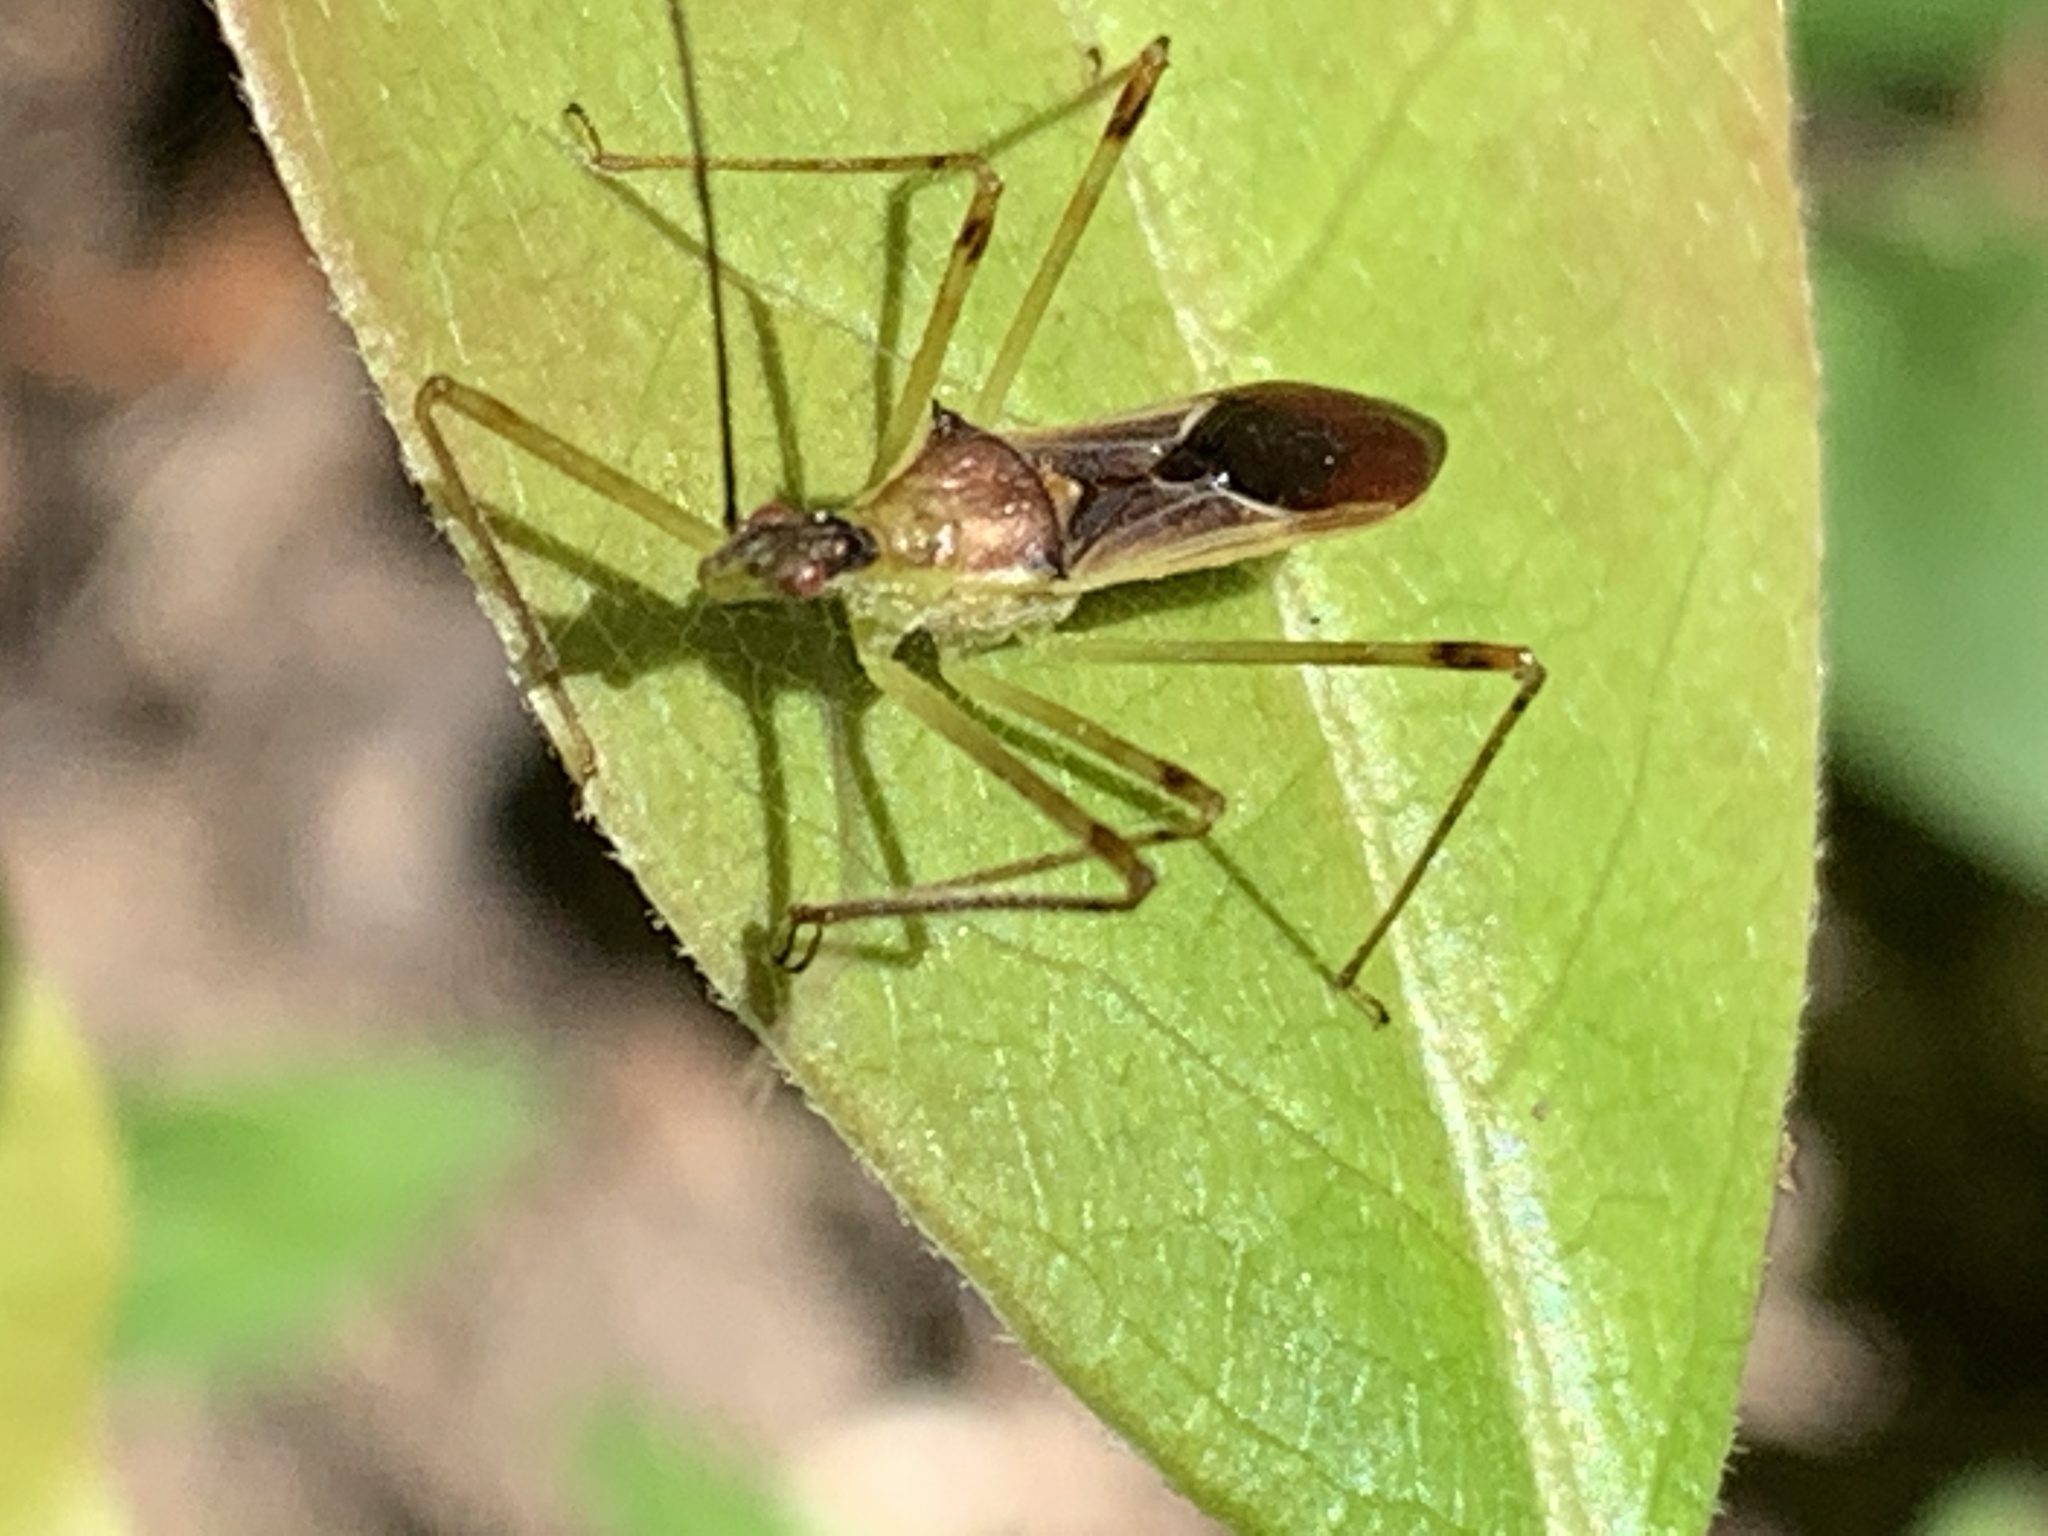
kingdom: Animalia
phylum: Arthropoda
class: Insecta
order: Hemiptera
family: Reduviidae
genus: Zelus
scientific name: Zelus luridus
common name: Pale green assassin bug
